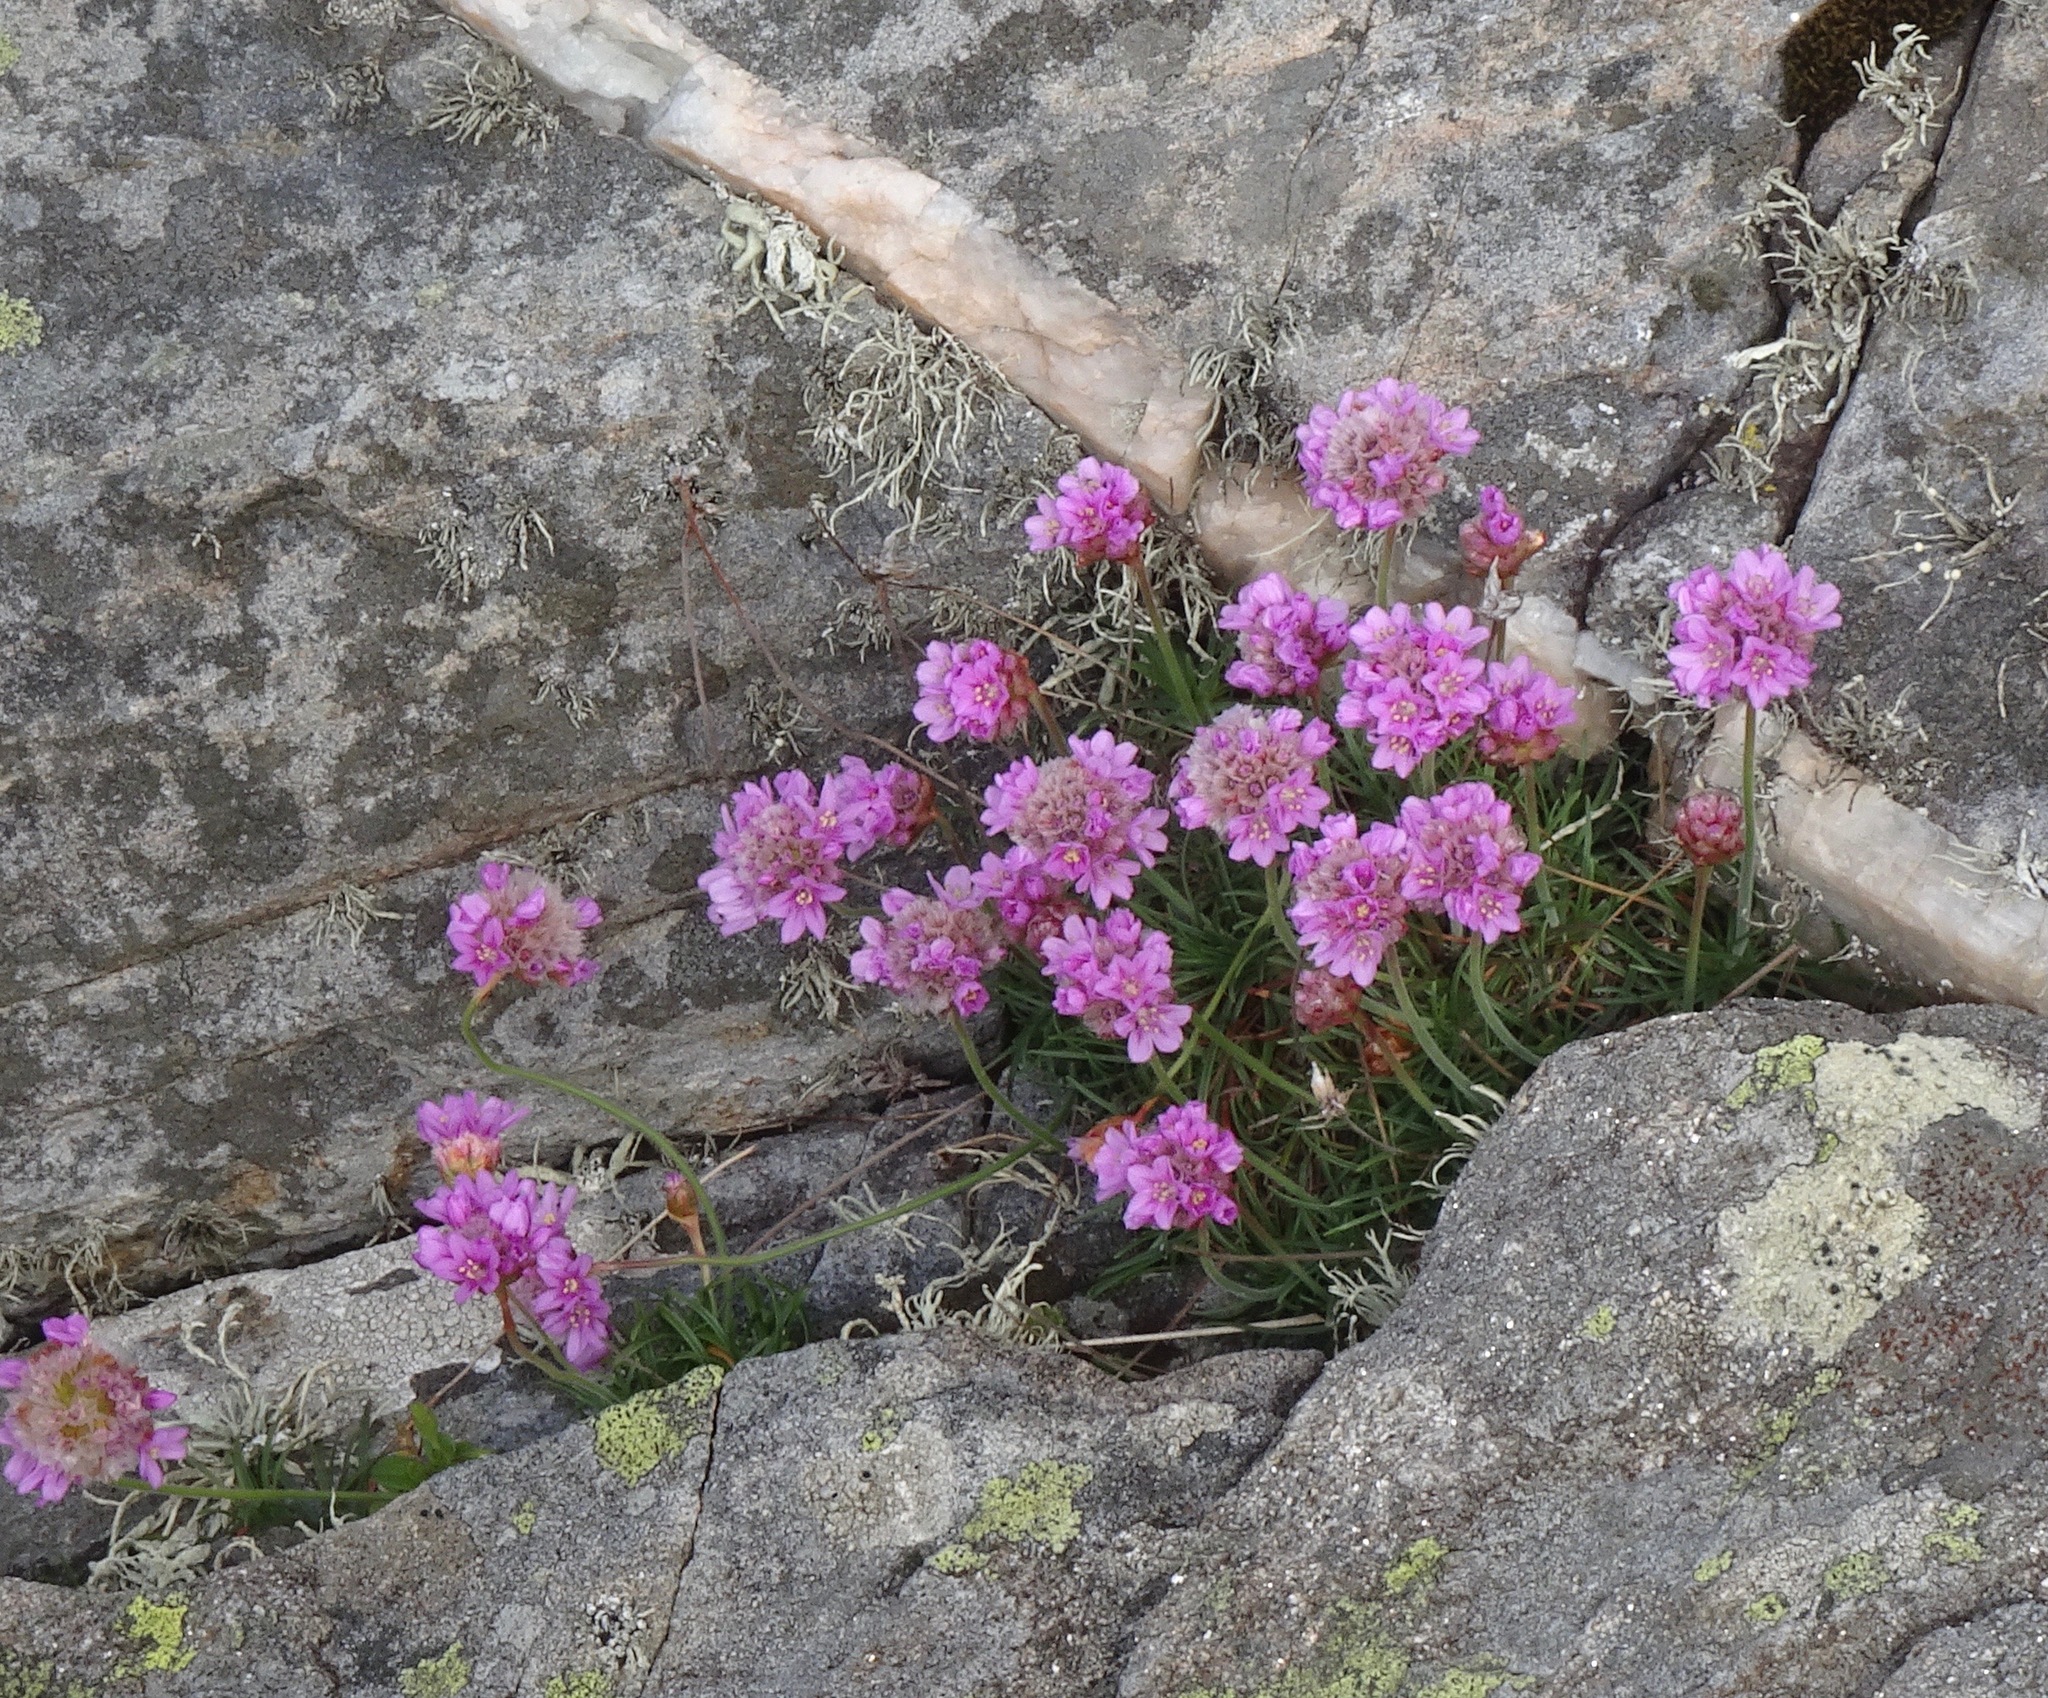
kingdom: Plantae
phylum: Tracheophyta
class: Magnoliopsida
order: Caryophyllales
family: Plumbaginaceae
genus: Armeria
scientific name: Armeria maritima
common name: Thrift
